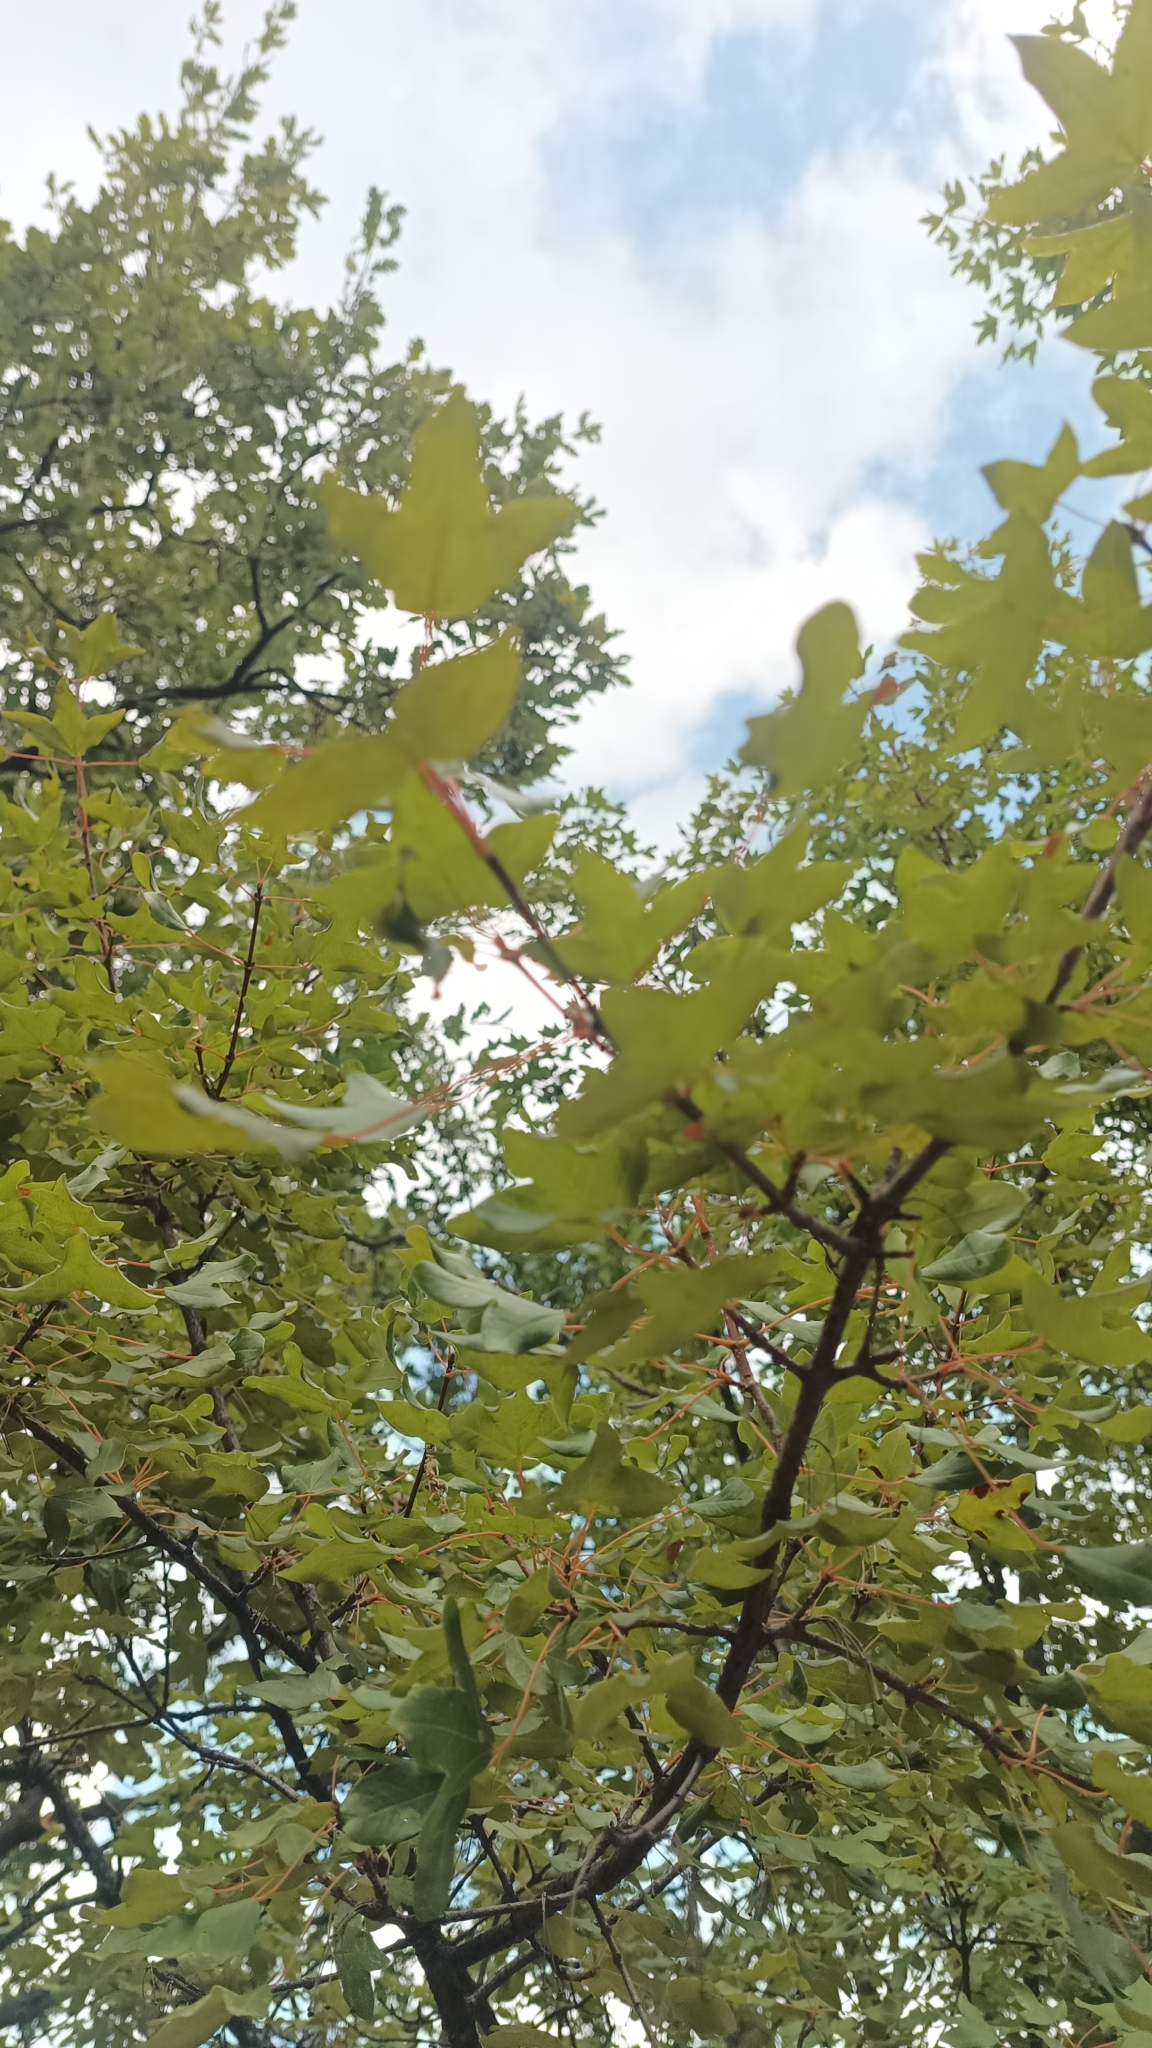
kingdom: Plantae
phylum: Tracheophyta
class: Magnoliopsida
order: Sapindales
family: Sapindaceae
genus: Acer
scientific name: Acer monspessulanum
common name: Montpellier maple
